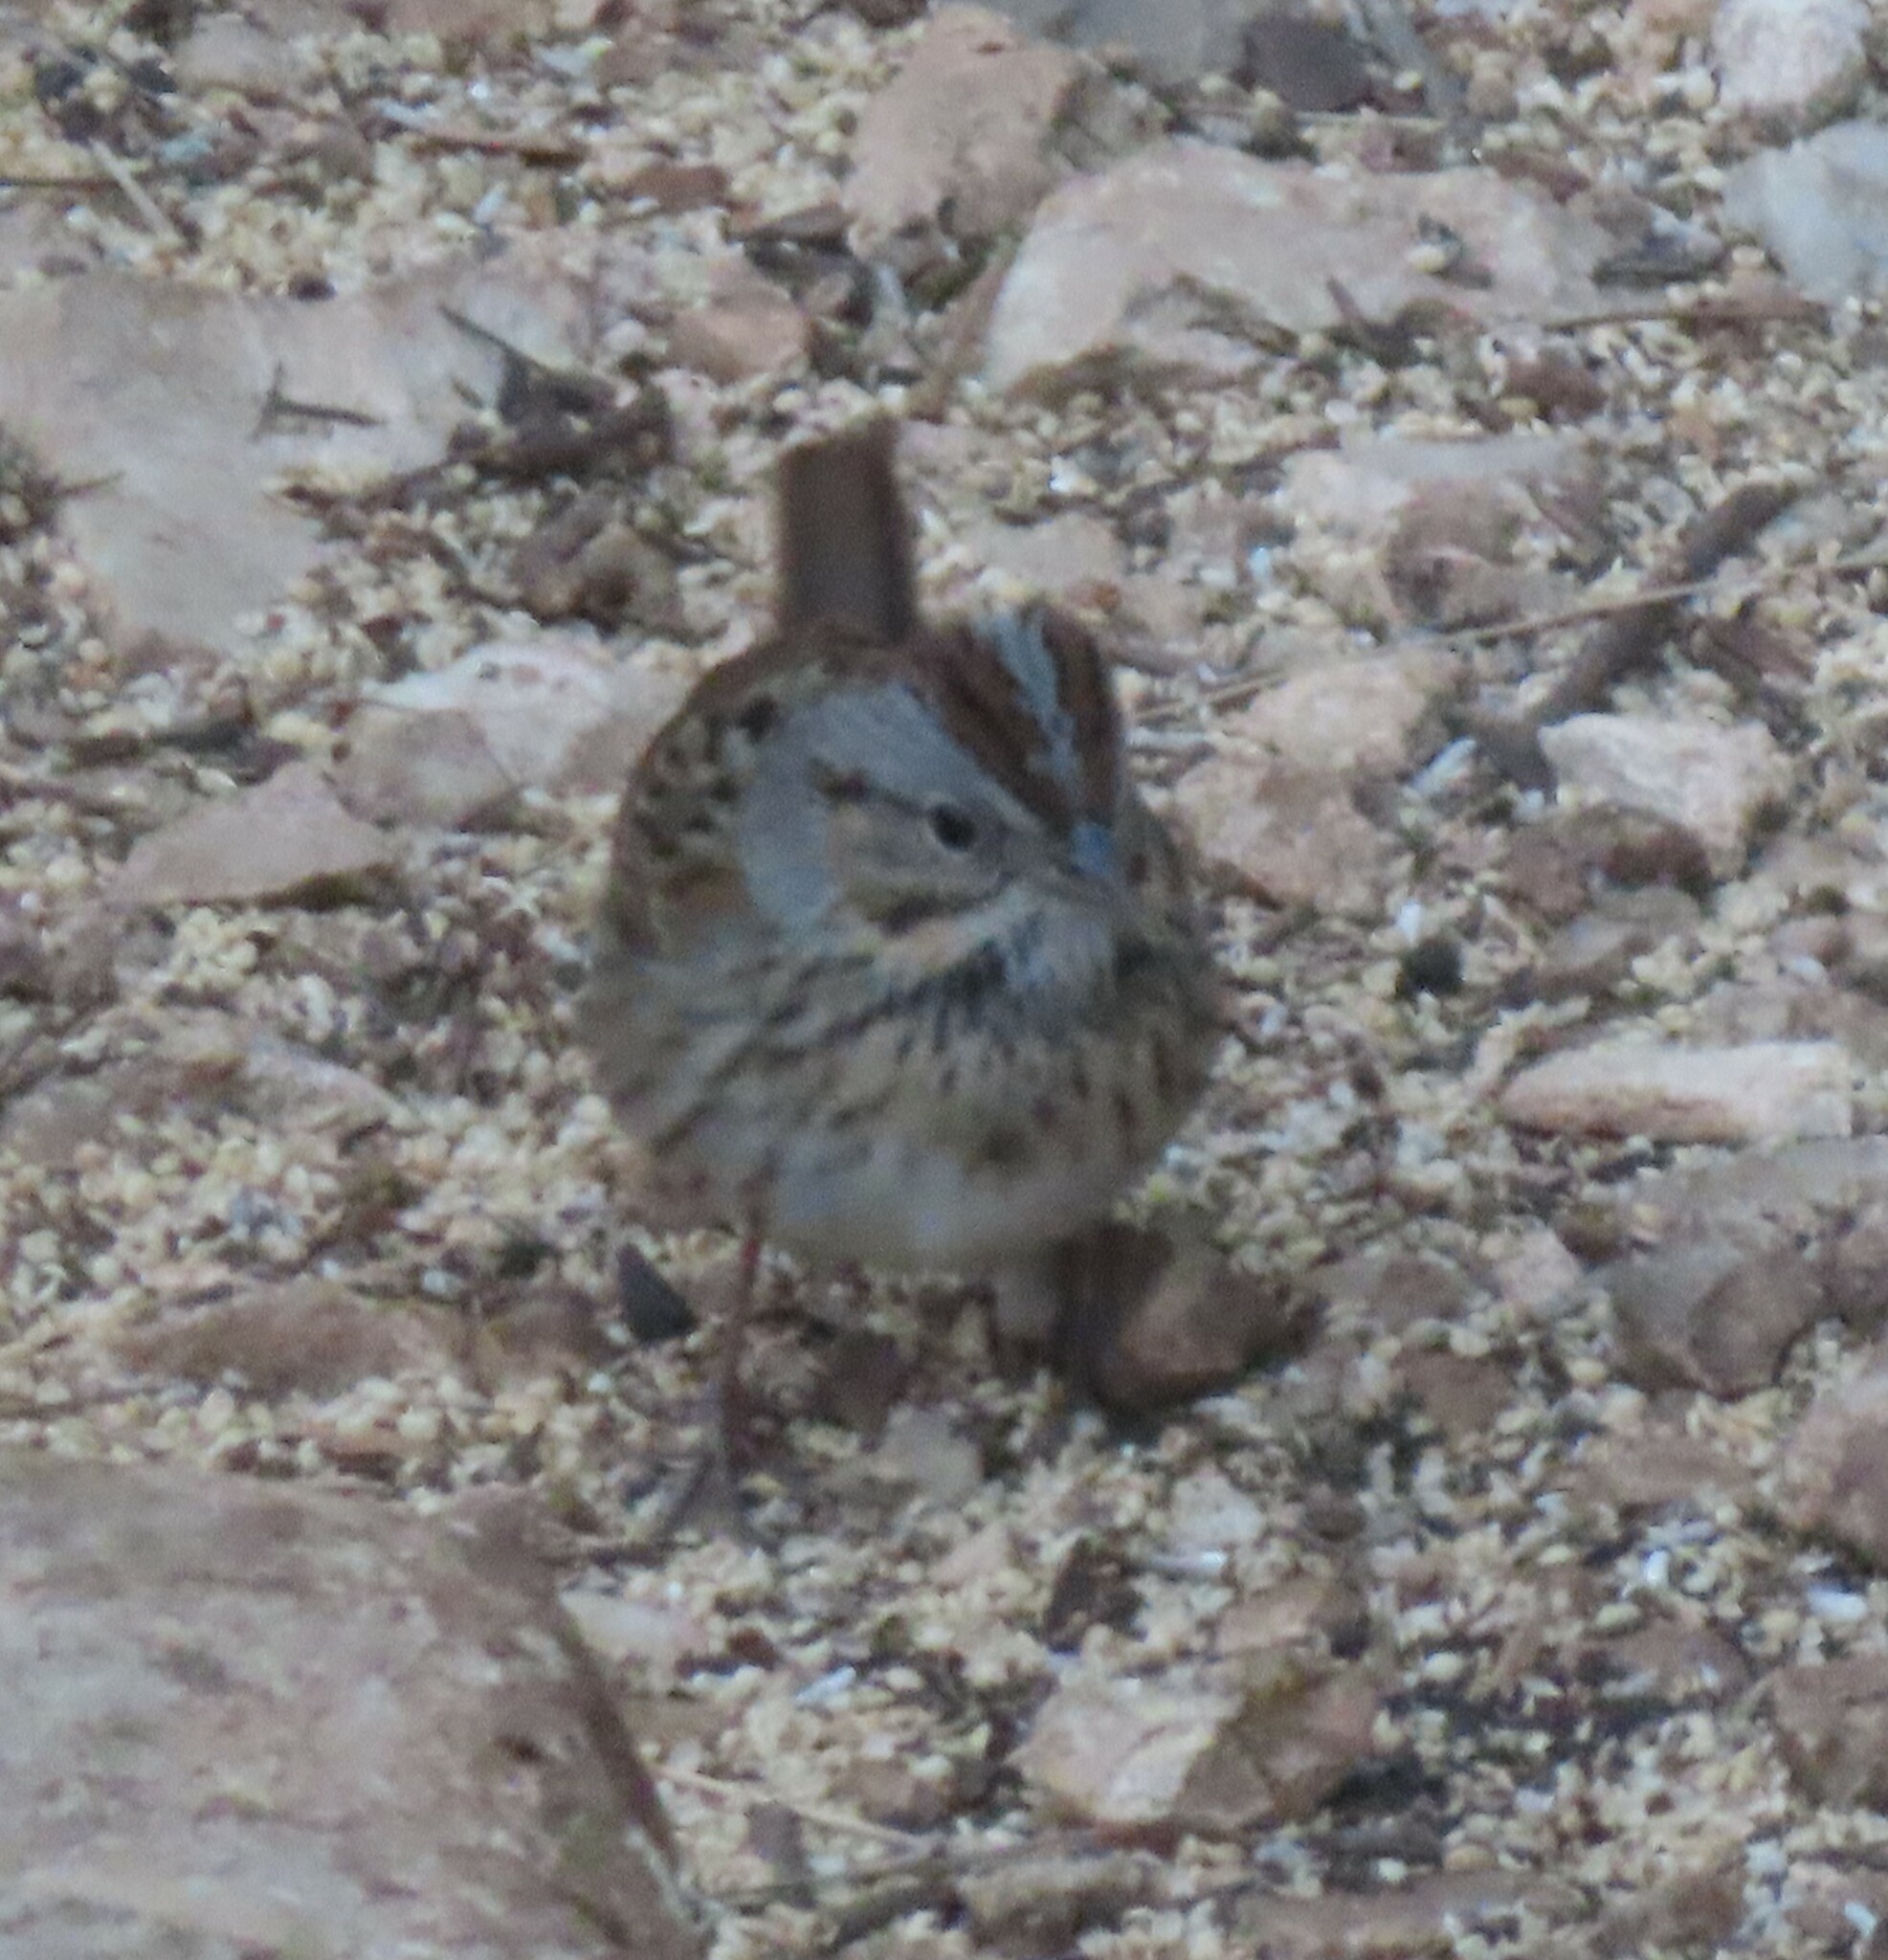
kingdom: Animalia
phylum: Chordata
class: Aves
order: Passeriformes
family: Passerellidae
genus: Melospiza
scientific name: Melospiza lincolnii
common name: Lincoln's sparrow
